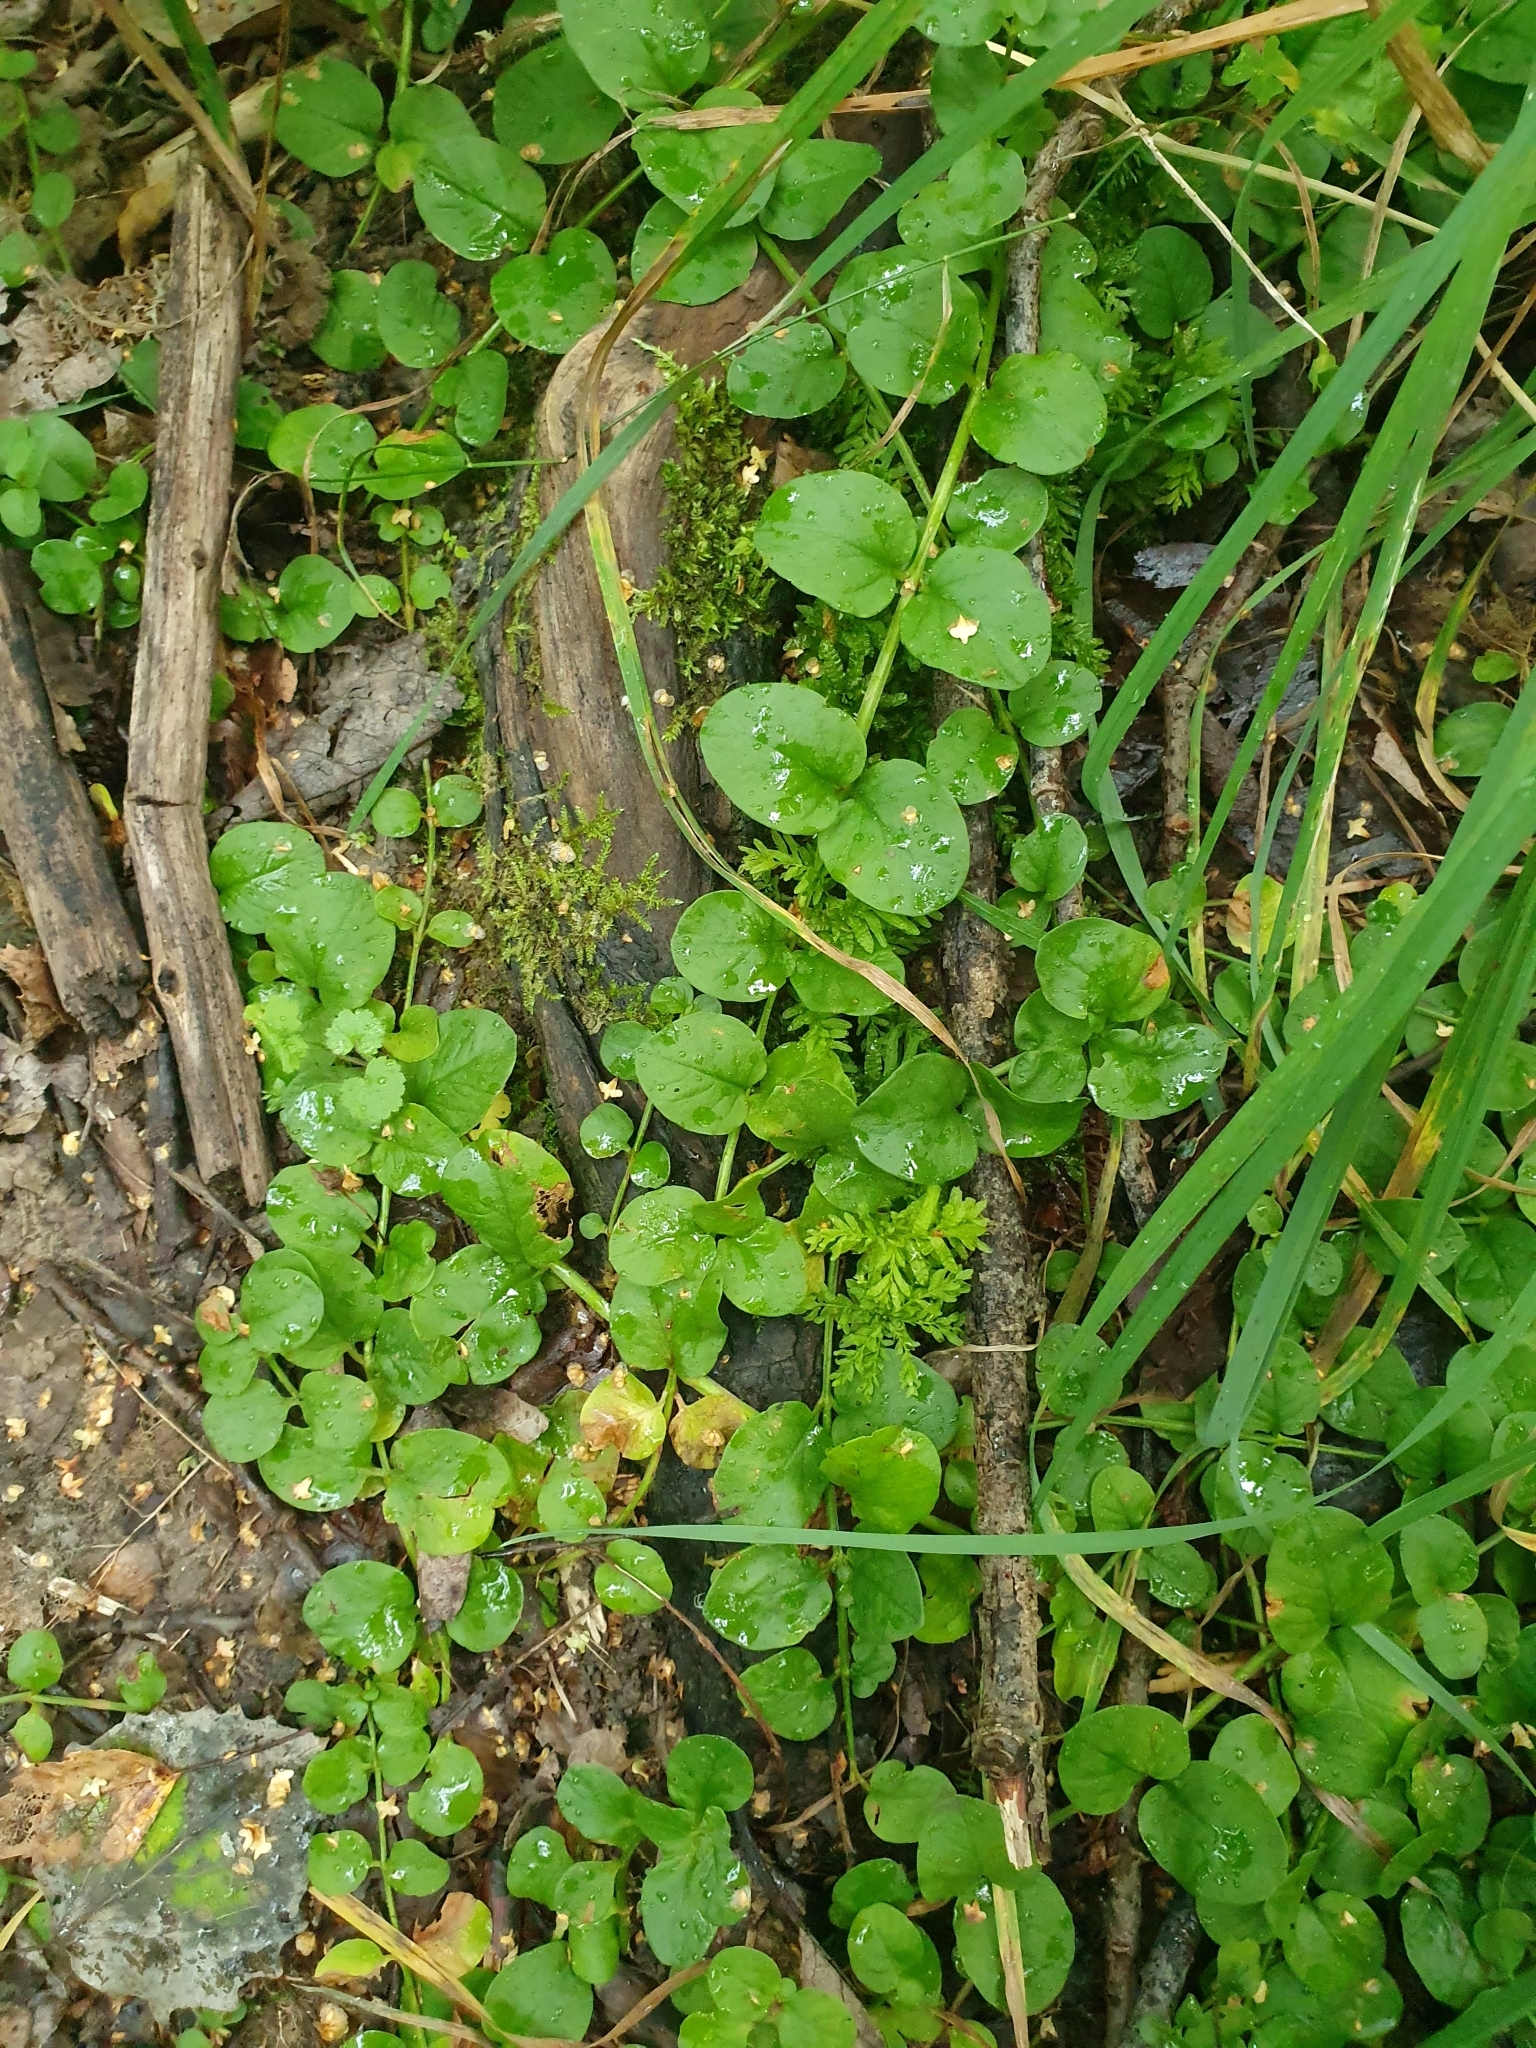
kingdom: Plantae
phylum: Tracheophyta
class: Magnoliopsida
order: Ericales
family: Primulaceae
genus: Lysimachia
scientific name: Lysimachia nummularia
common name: Moneywort
